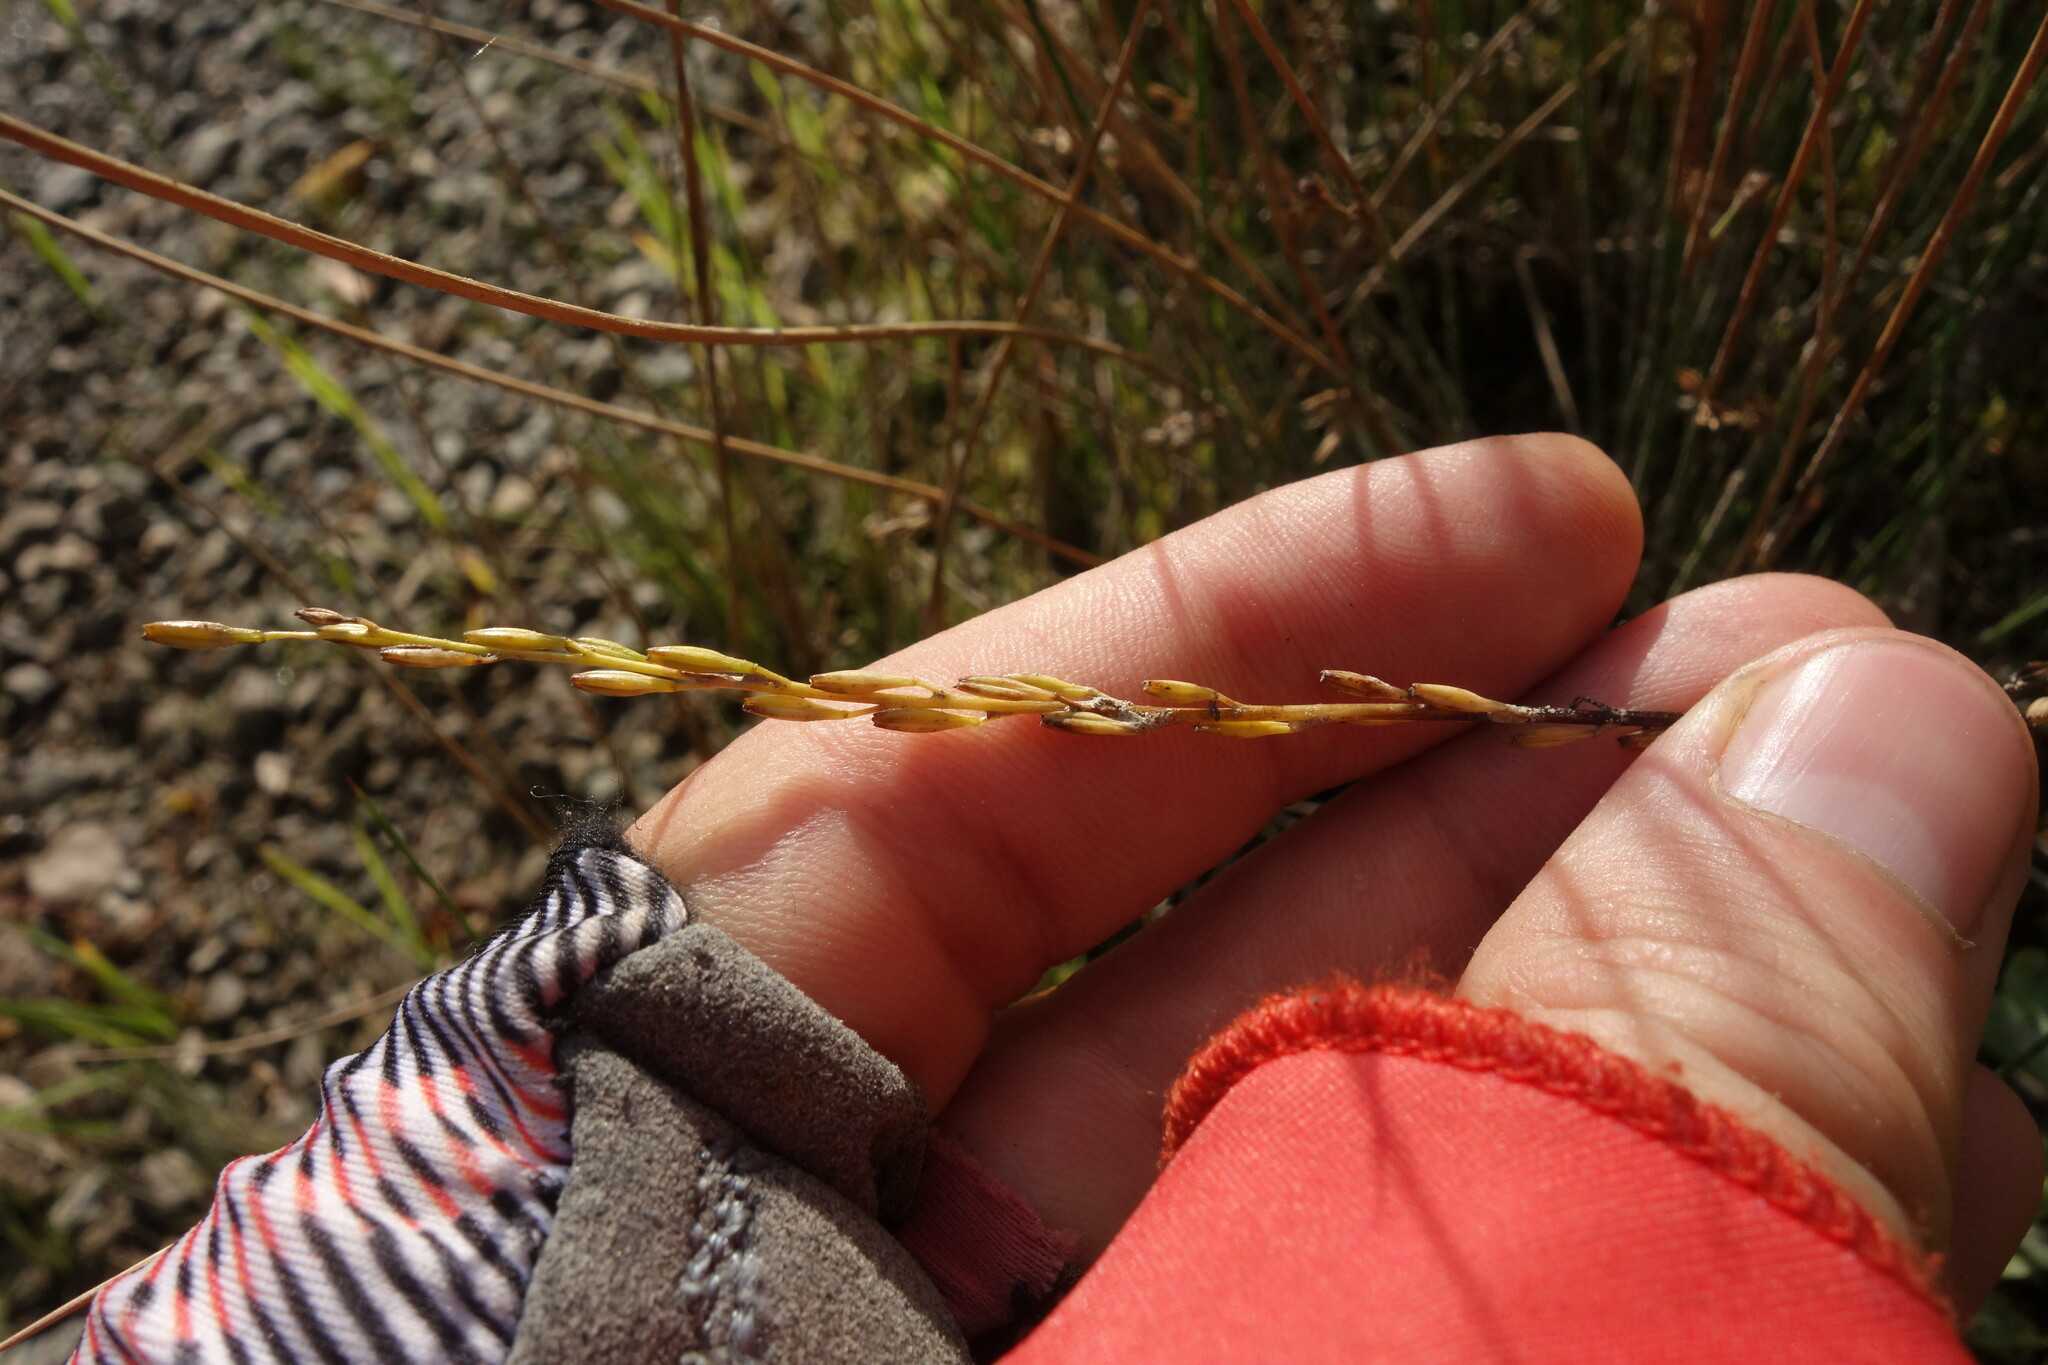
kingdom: Plantae
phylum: Tracheophyta
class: Liliopsida
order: Alismatales
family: Juncaginaceae
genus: Triglochin
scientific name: Triglochin palustris
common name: Marsh arrowgrass
